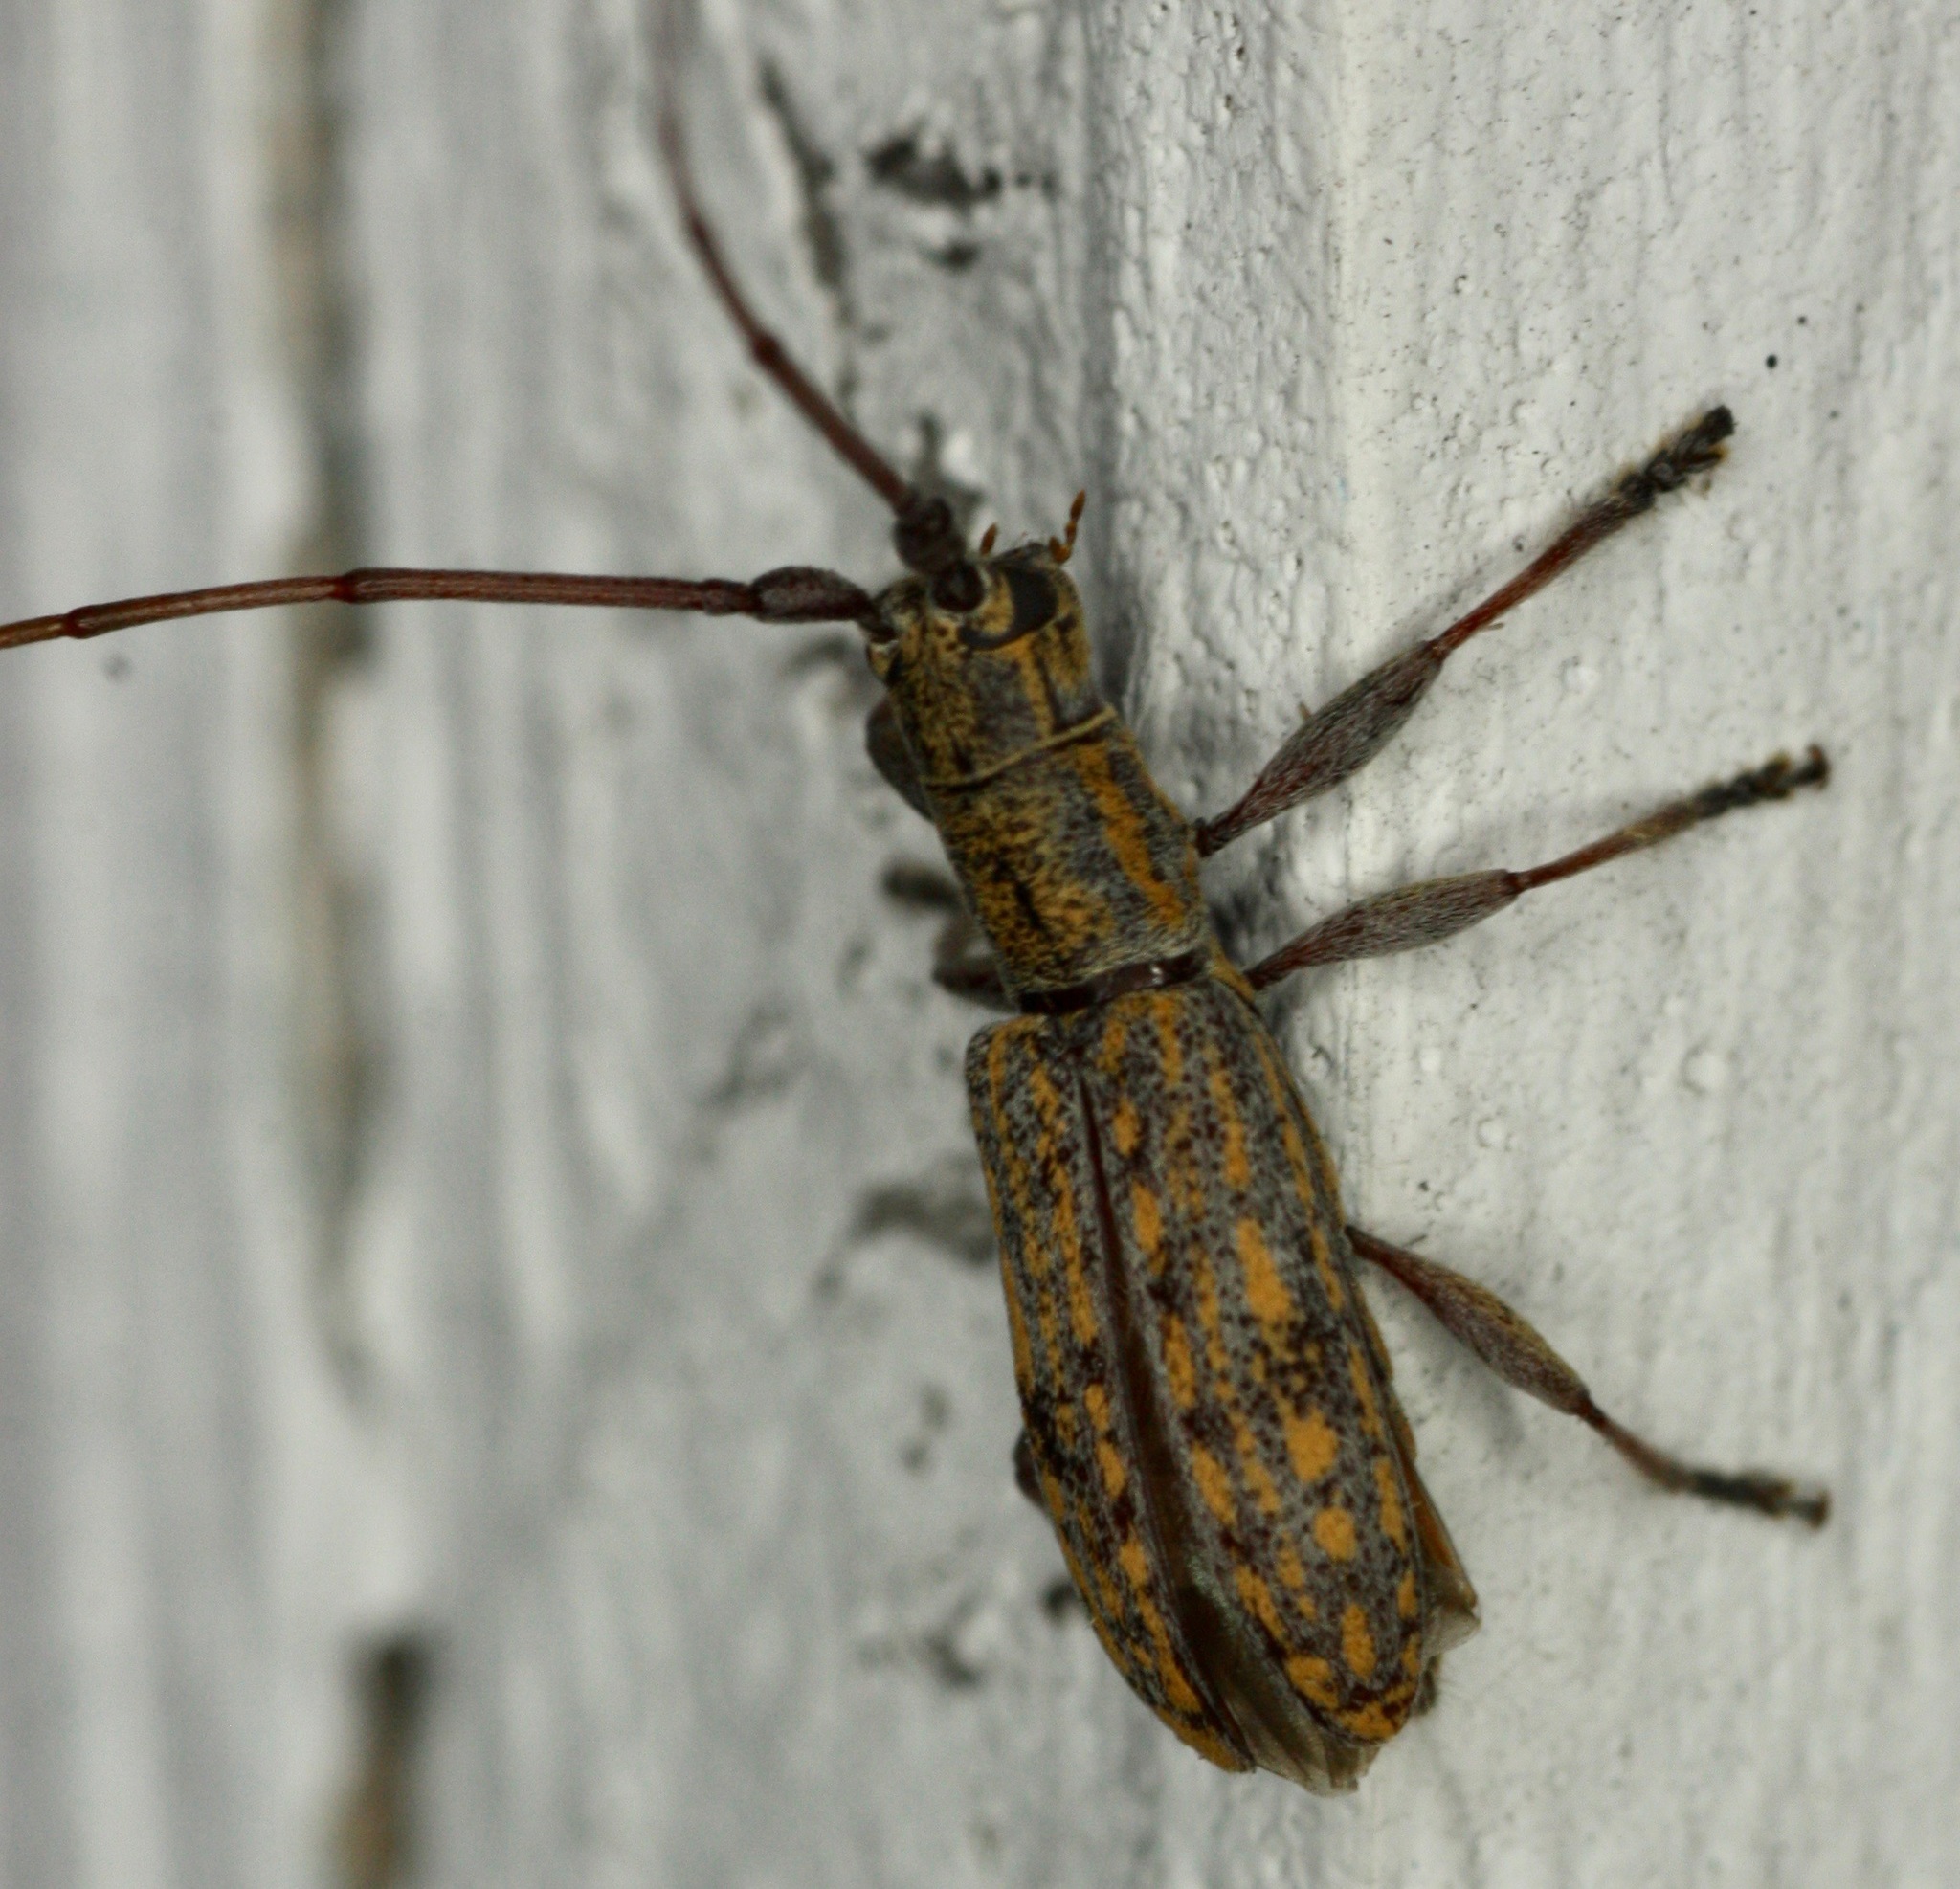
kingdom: Animalia
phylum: Arthropoda
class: Insecta
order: Coleoptera
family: Cerambycidae
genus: Dorcaschema
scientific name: Dorcaschema alternatum
